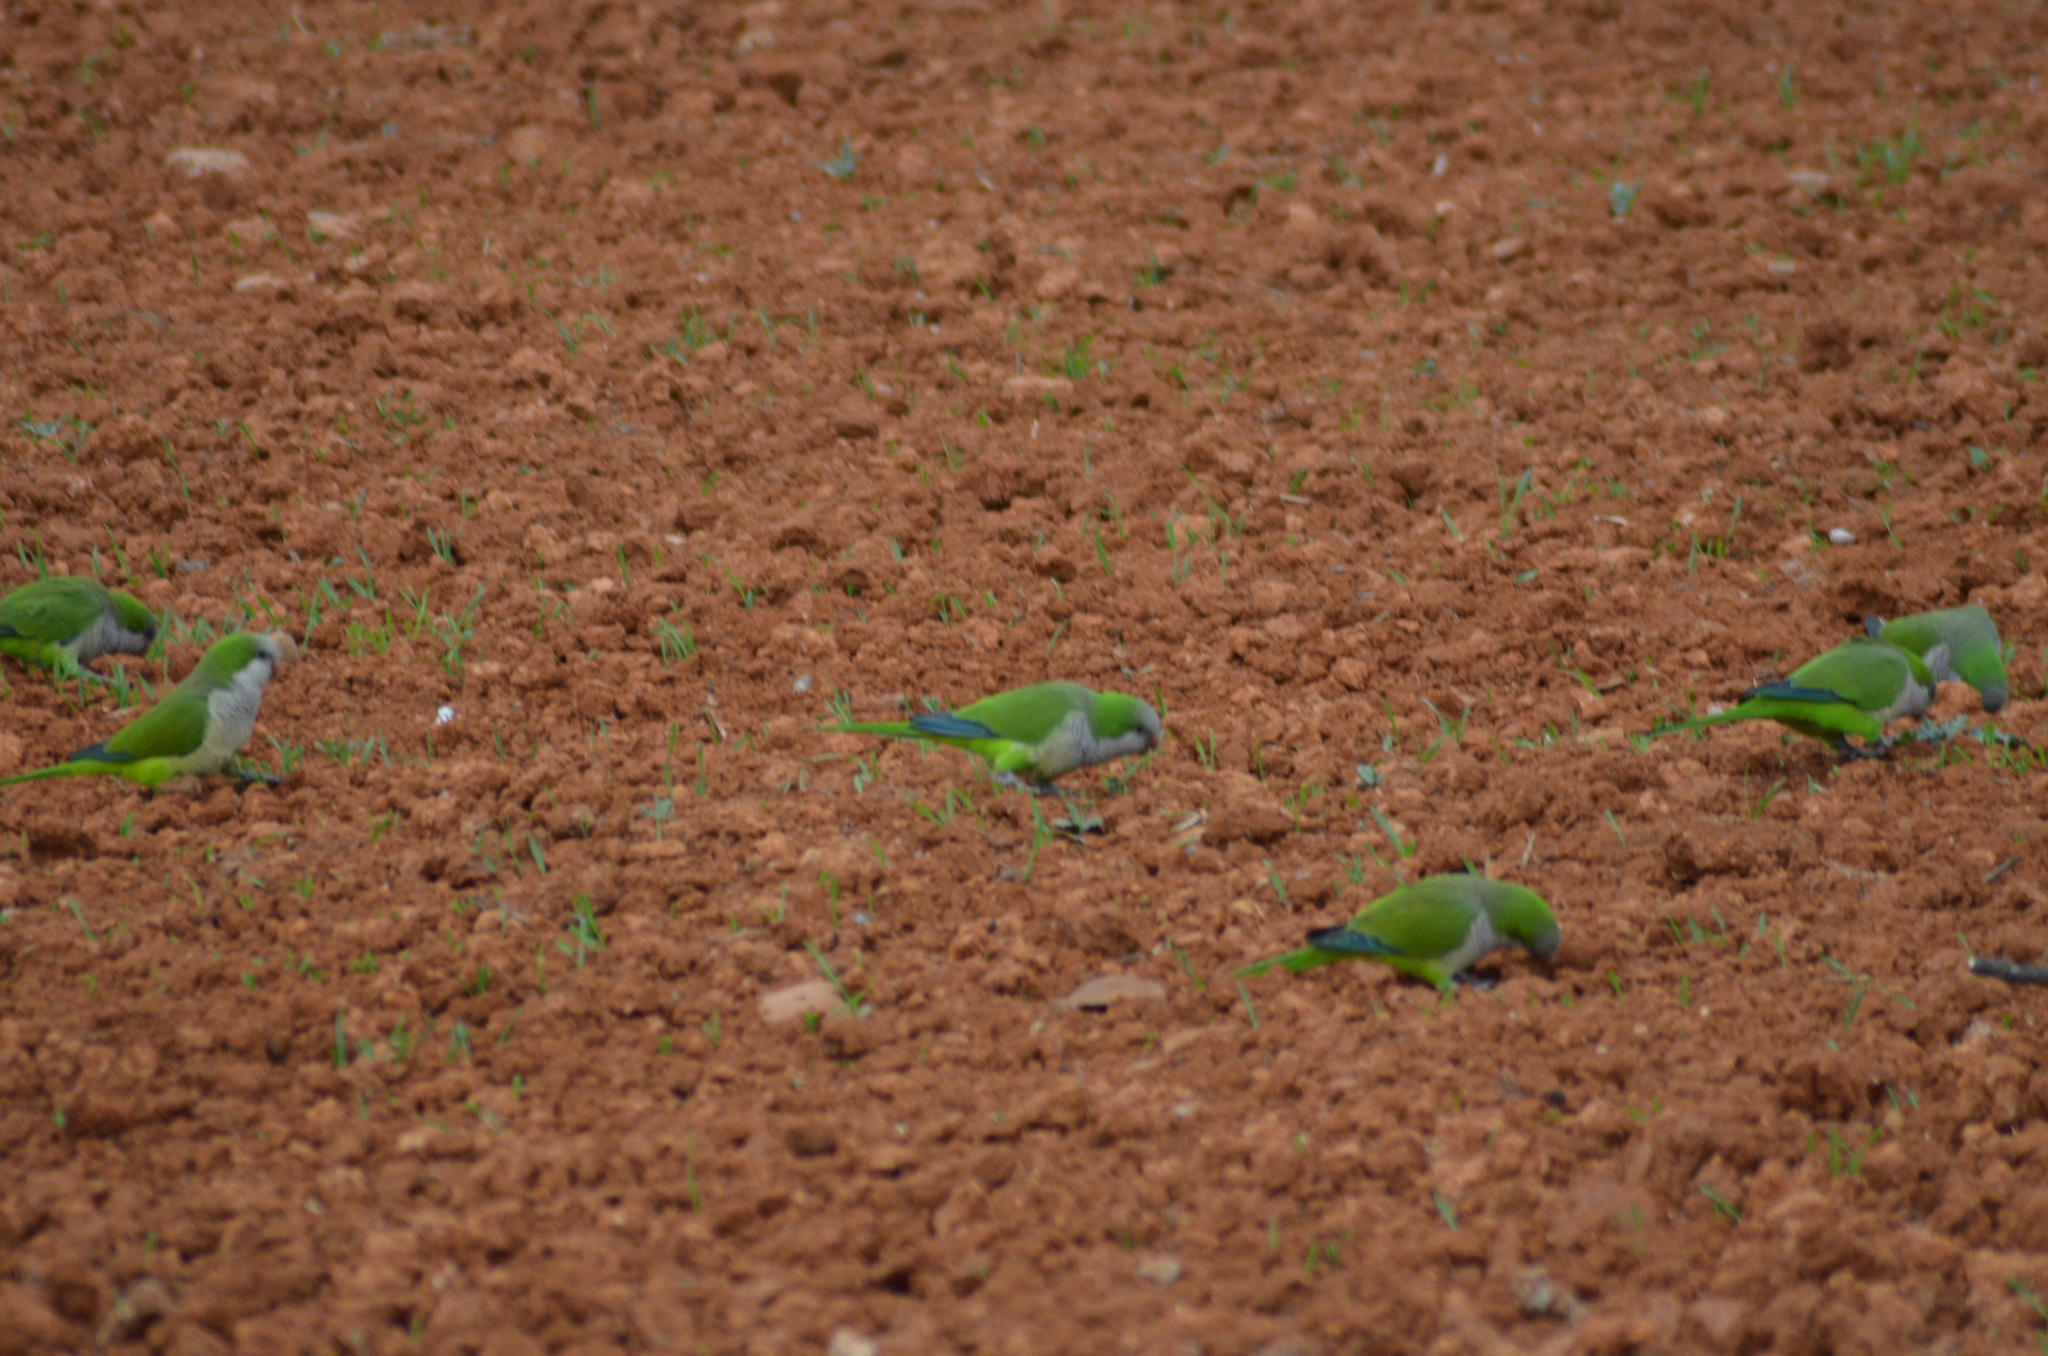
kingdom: Animalia
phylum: Chordata
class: Aves
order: Psittaciformes
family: Psittacidae
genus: Myiopsitta
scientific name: Myiopsitta monachus
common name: Monk parakeet
